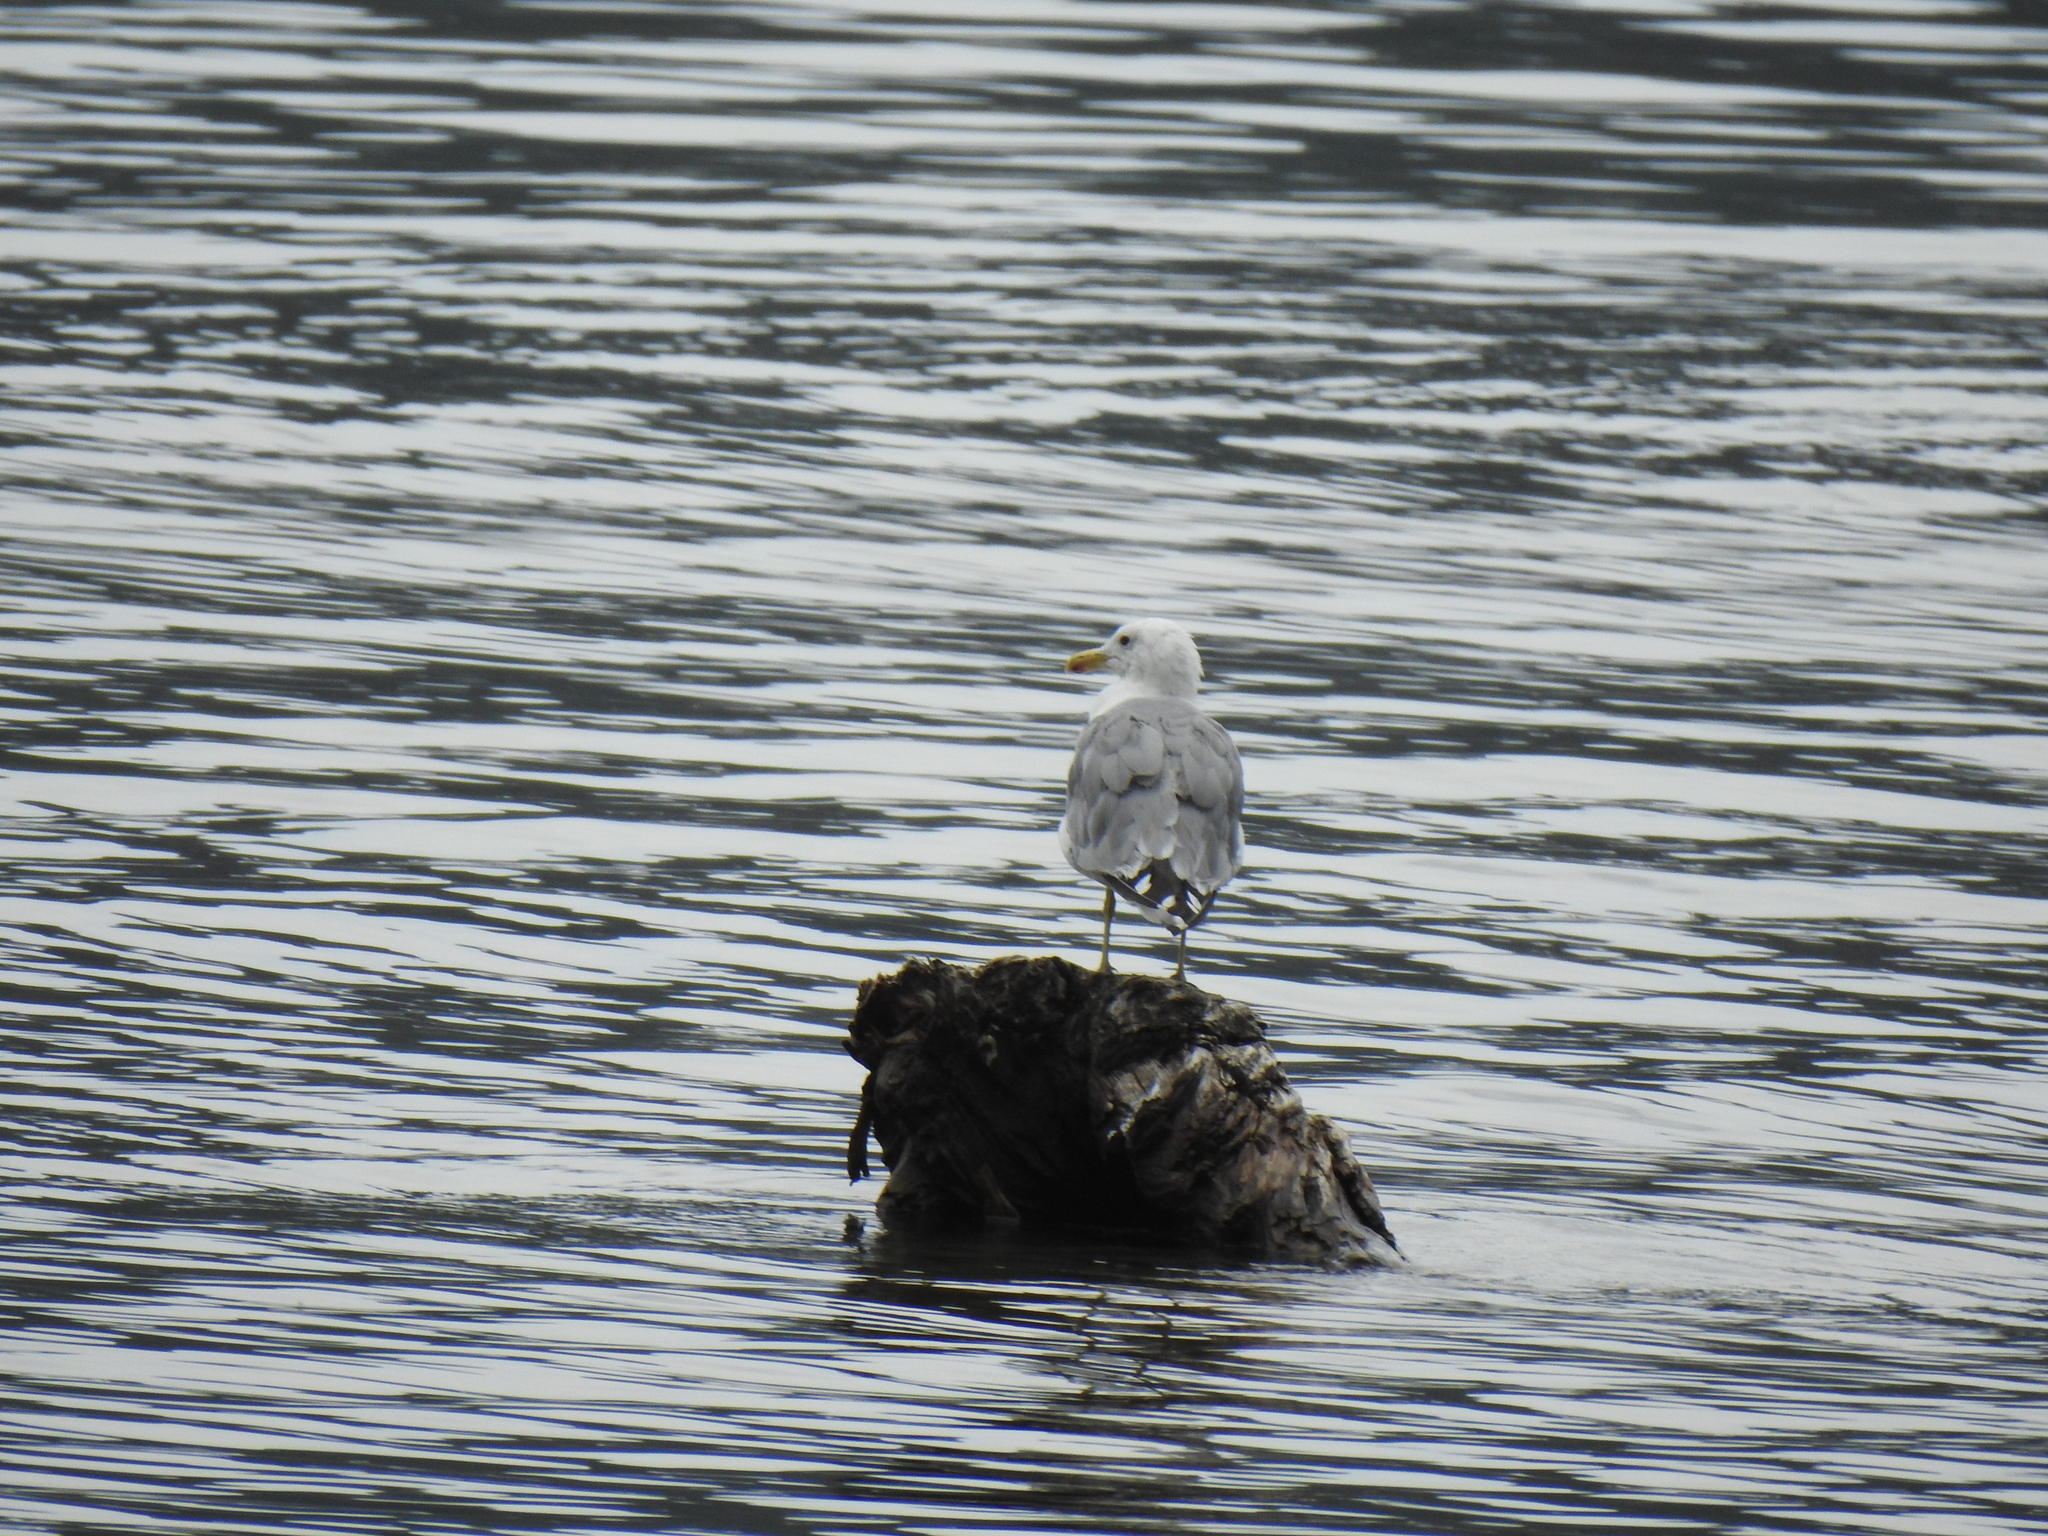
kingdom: Animalia
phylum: Chordata
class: Aves
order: Charadriiformes
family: Laridae
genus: Larus
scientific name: Larus californicus
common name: California gull
